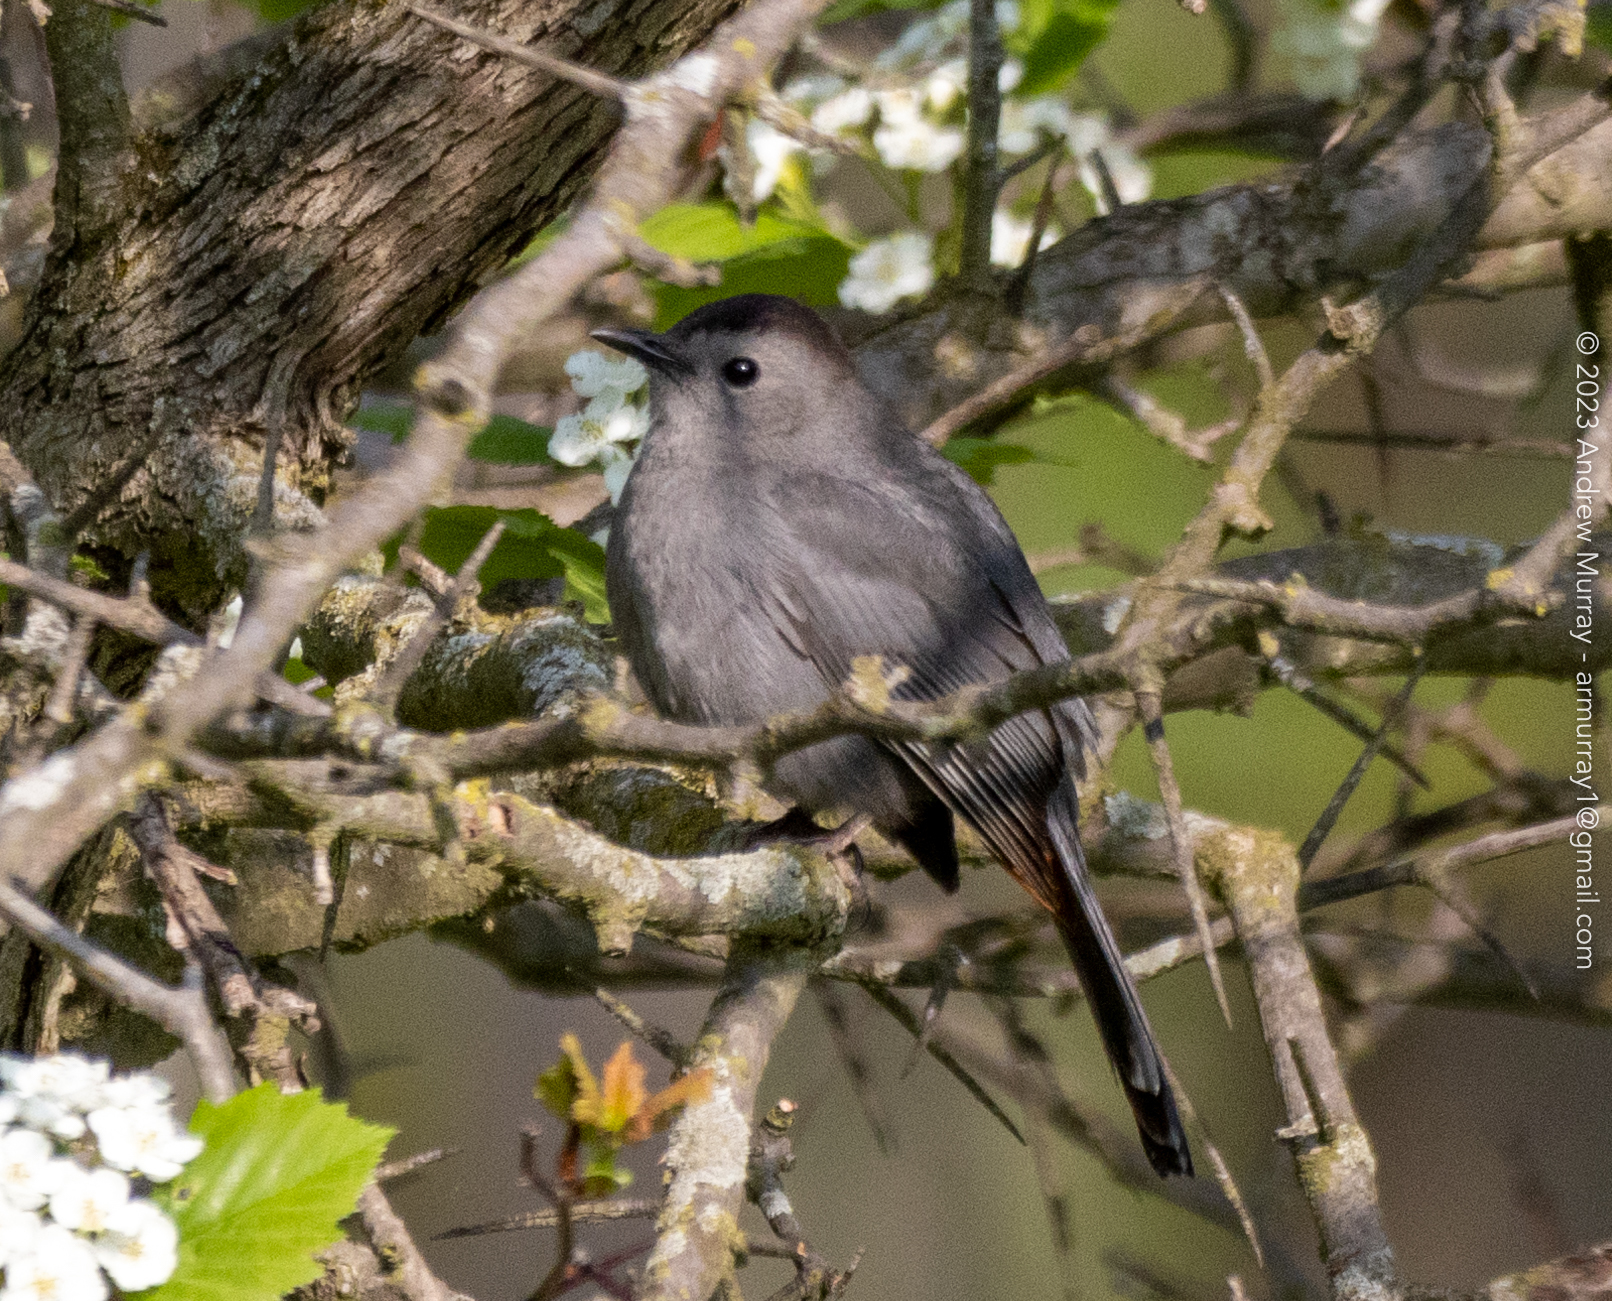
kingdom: Animalia
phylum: Chordata
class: Aves
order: Passeriformes
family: Mimidae
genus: Dumetella
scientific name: Dumetella carolinensis
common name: Gray catbird
